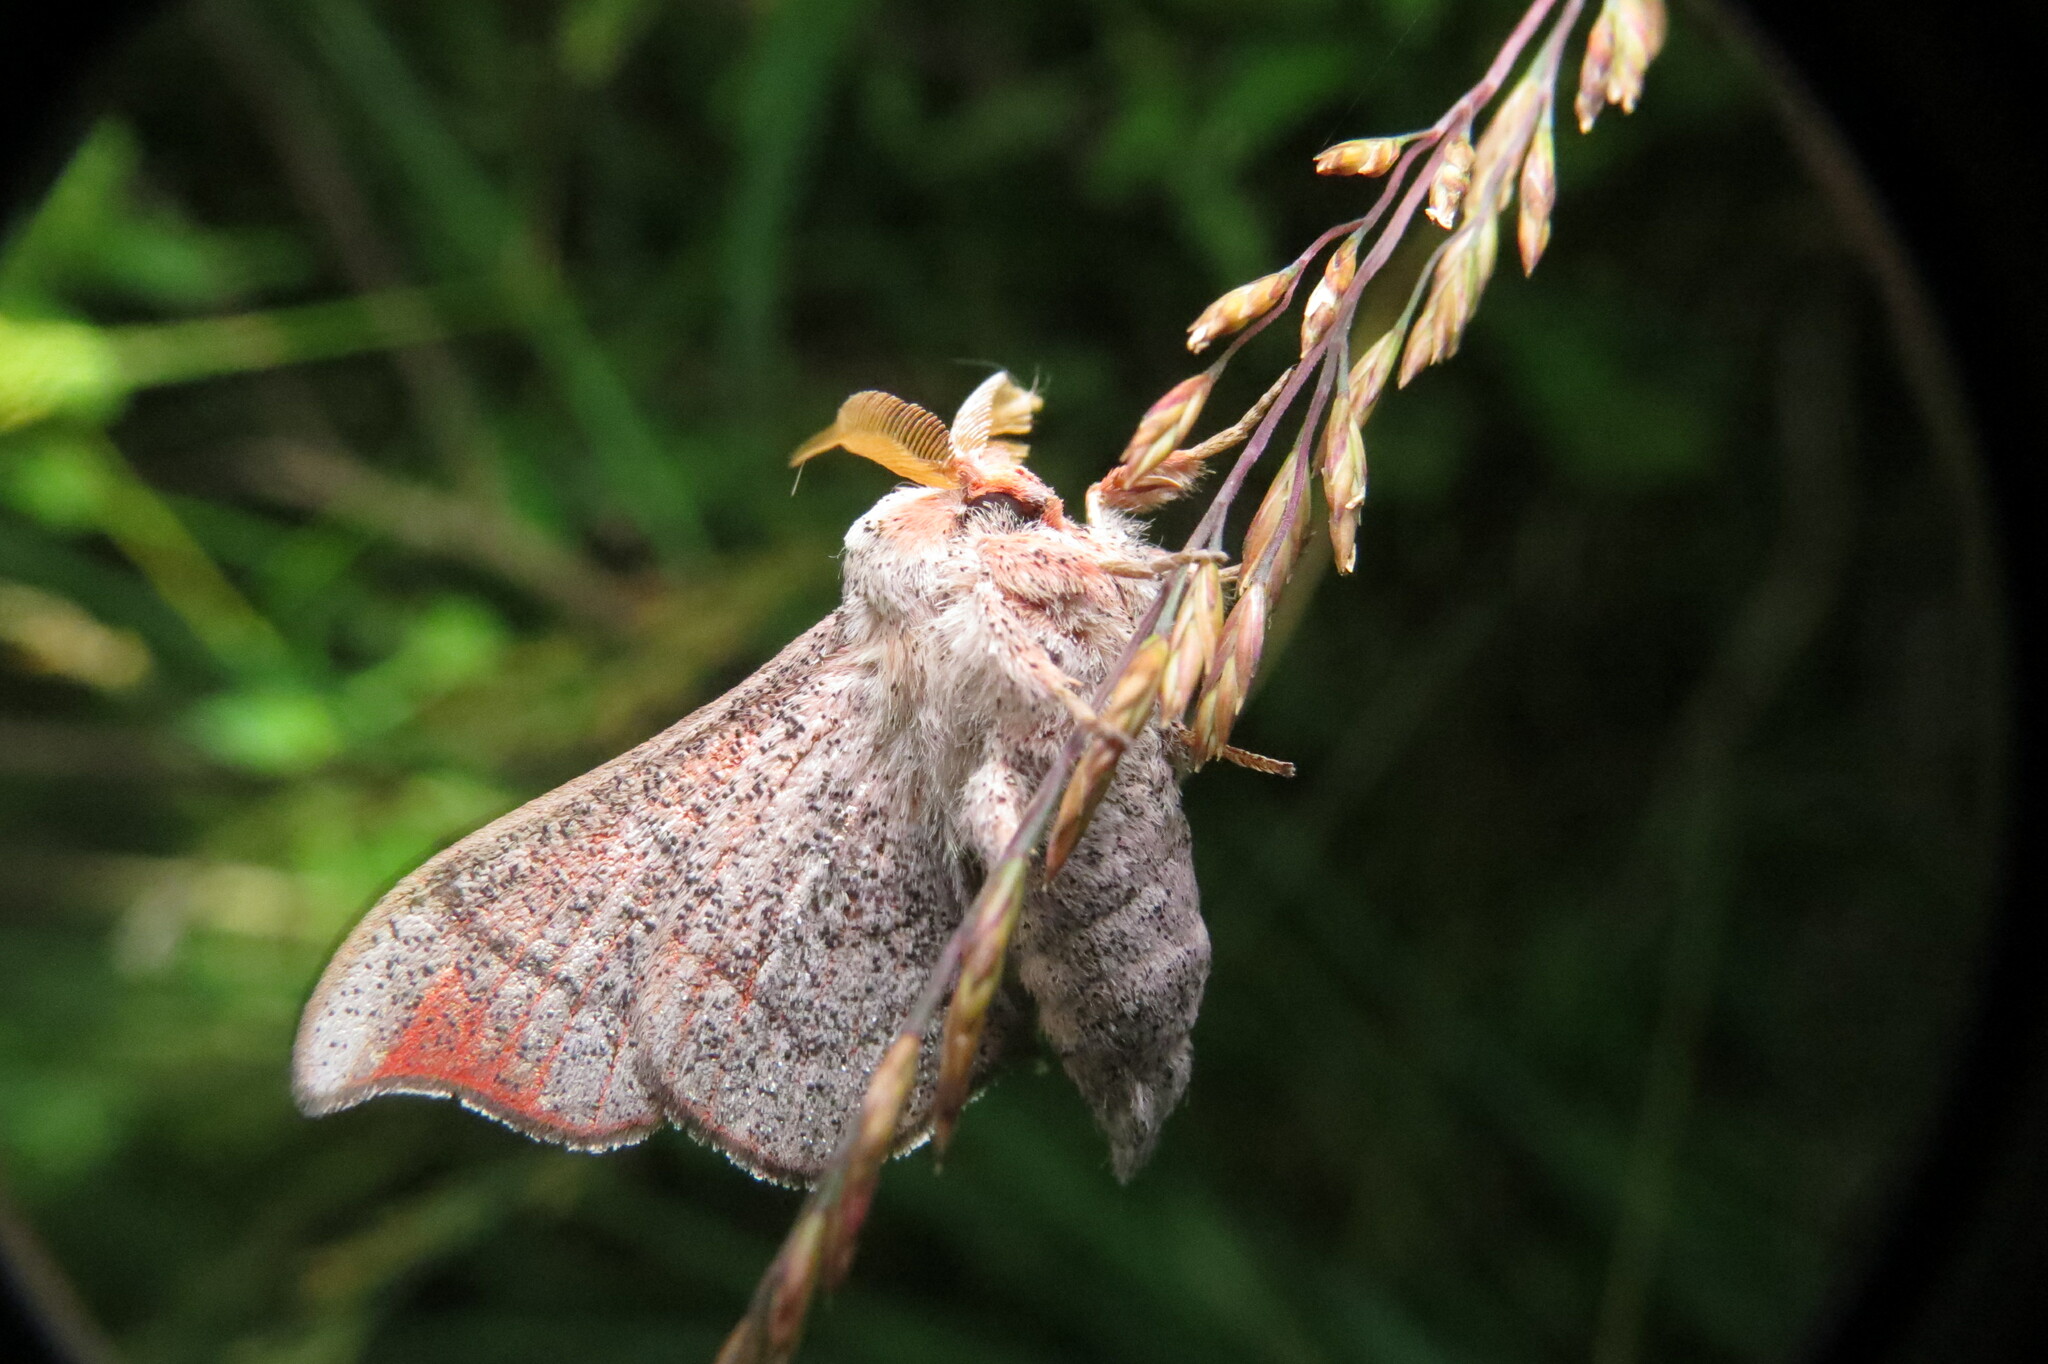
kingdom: Animalia
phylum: Arthropoda
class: Insecta
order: Lepidoptera
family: Mimallonidae
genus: Cicinnus
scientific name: Cicinnus melsheimeri
